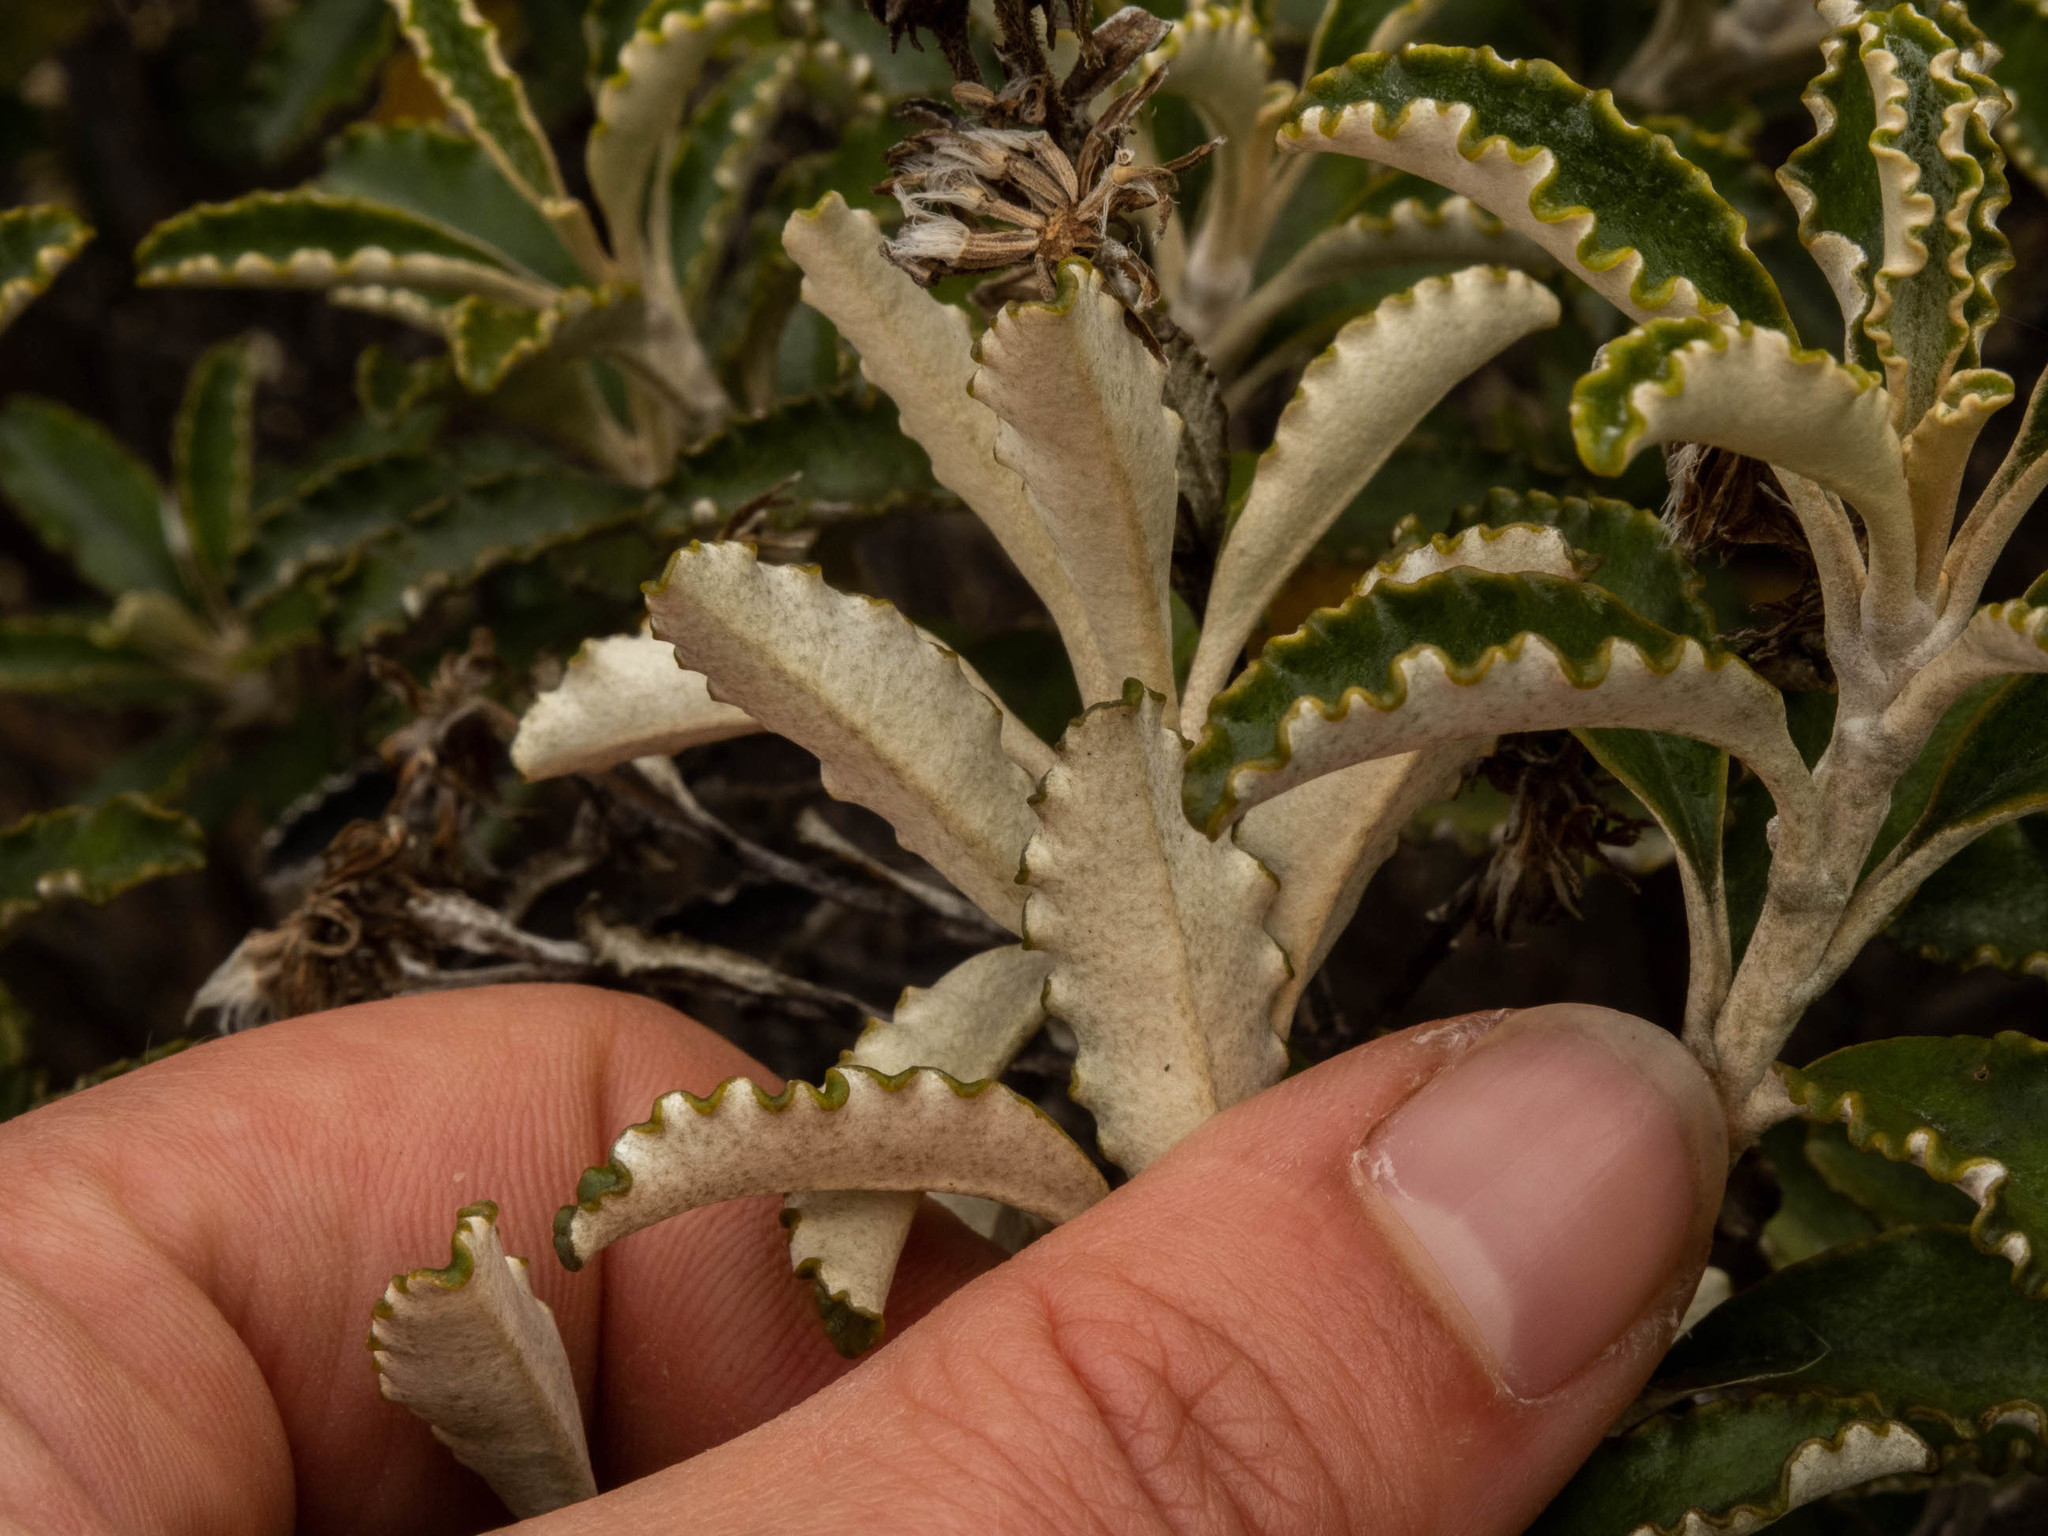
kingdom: Plantae
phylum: Tracheophyta
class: Magnoliopsida
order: Asterales
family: Asteraceae
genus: Brachyglottis
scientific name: Brachyglottis monroi
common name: Monro's ragwort
